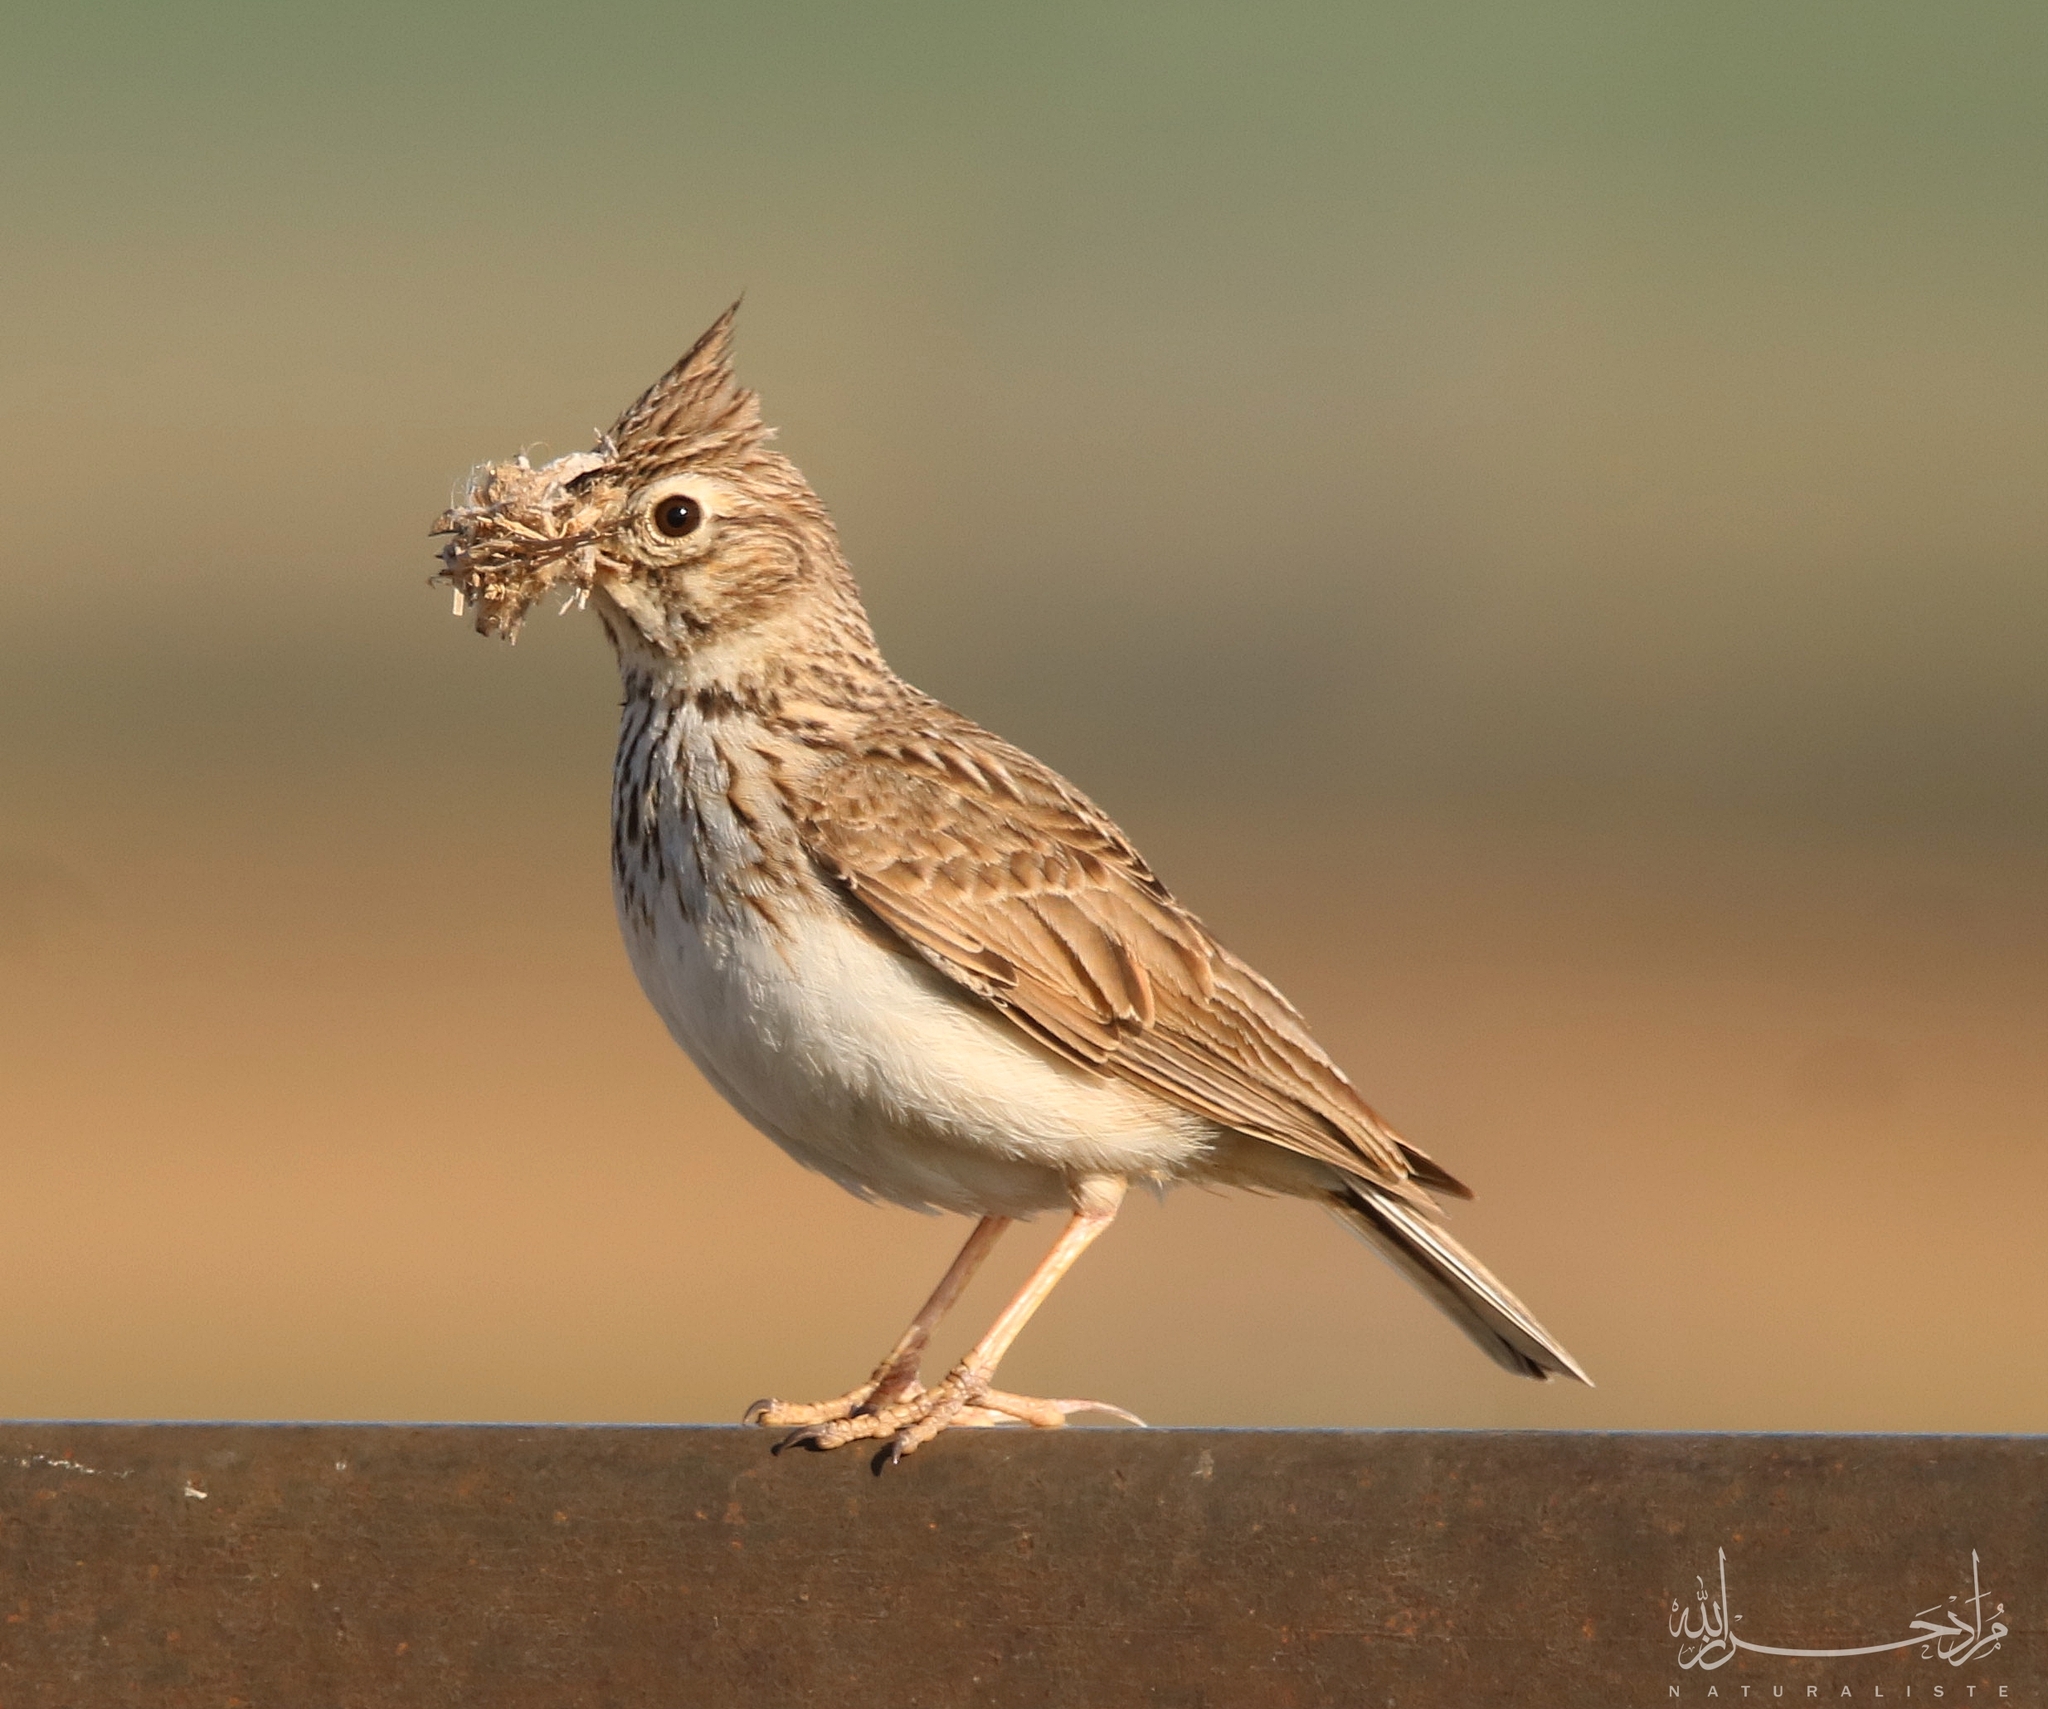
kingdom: Animalia
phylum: Chordata
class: Aves
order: Passeriformes
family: Alaudidae
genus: Galerida
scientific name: Galerida cristata
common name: Crested lark
